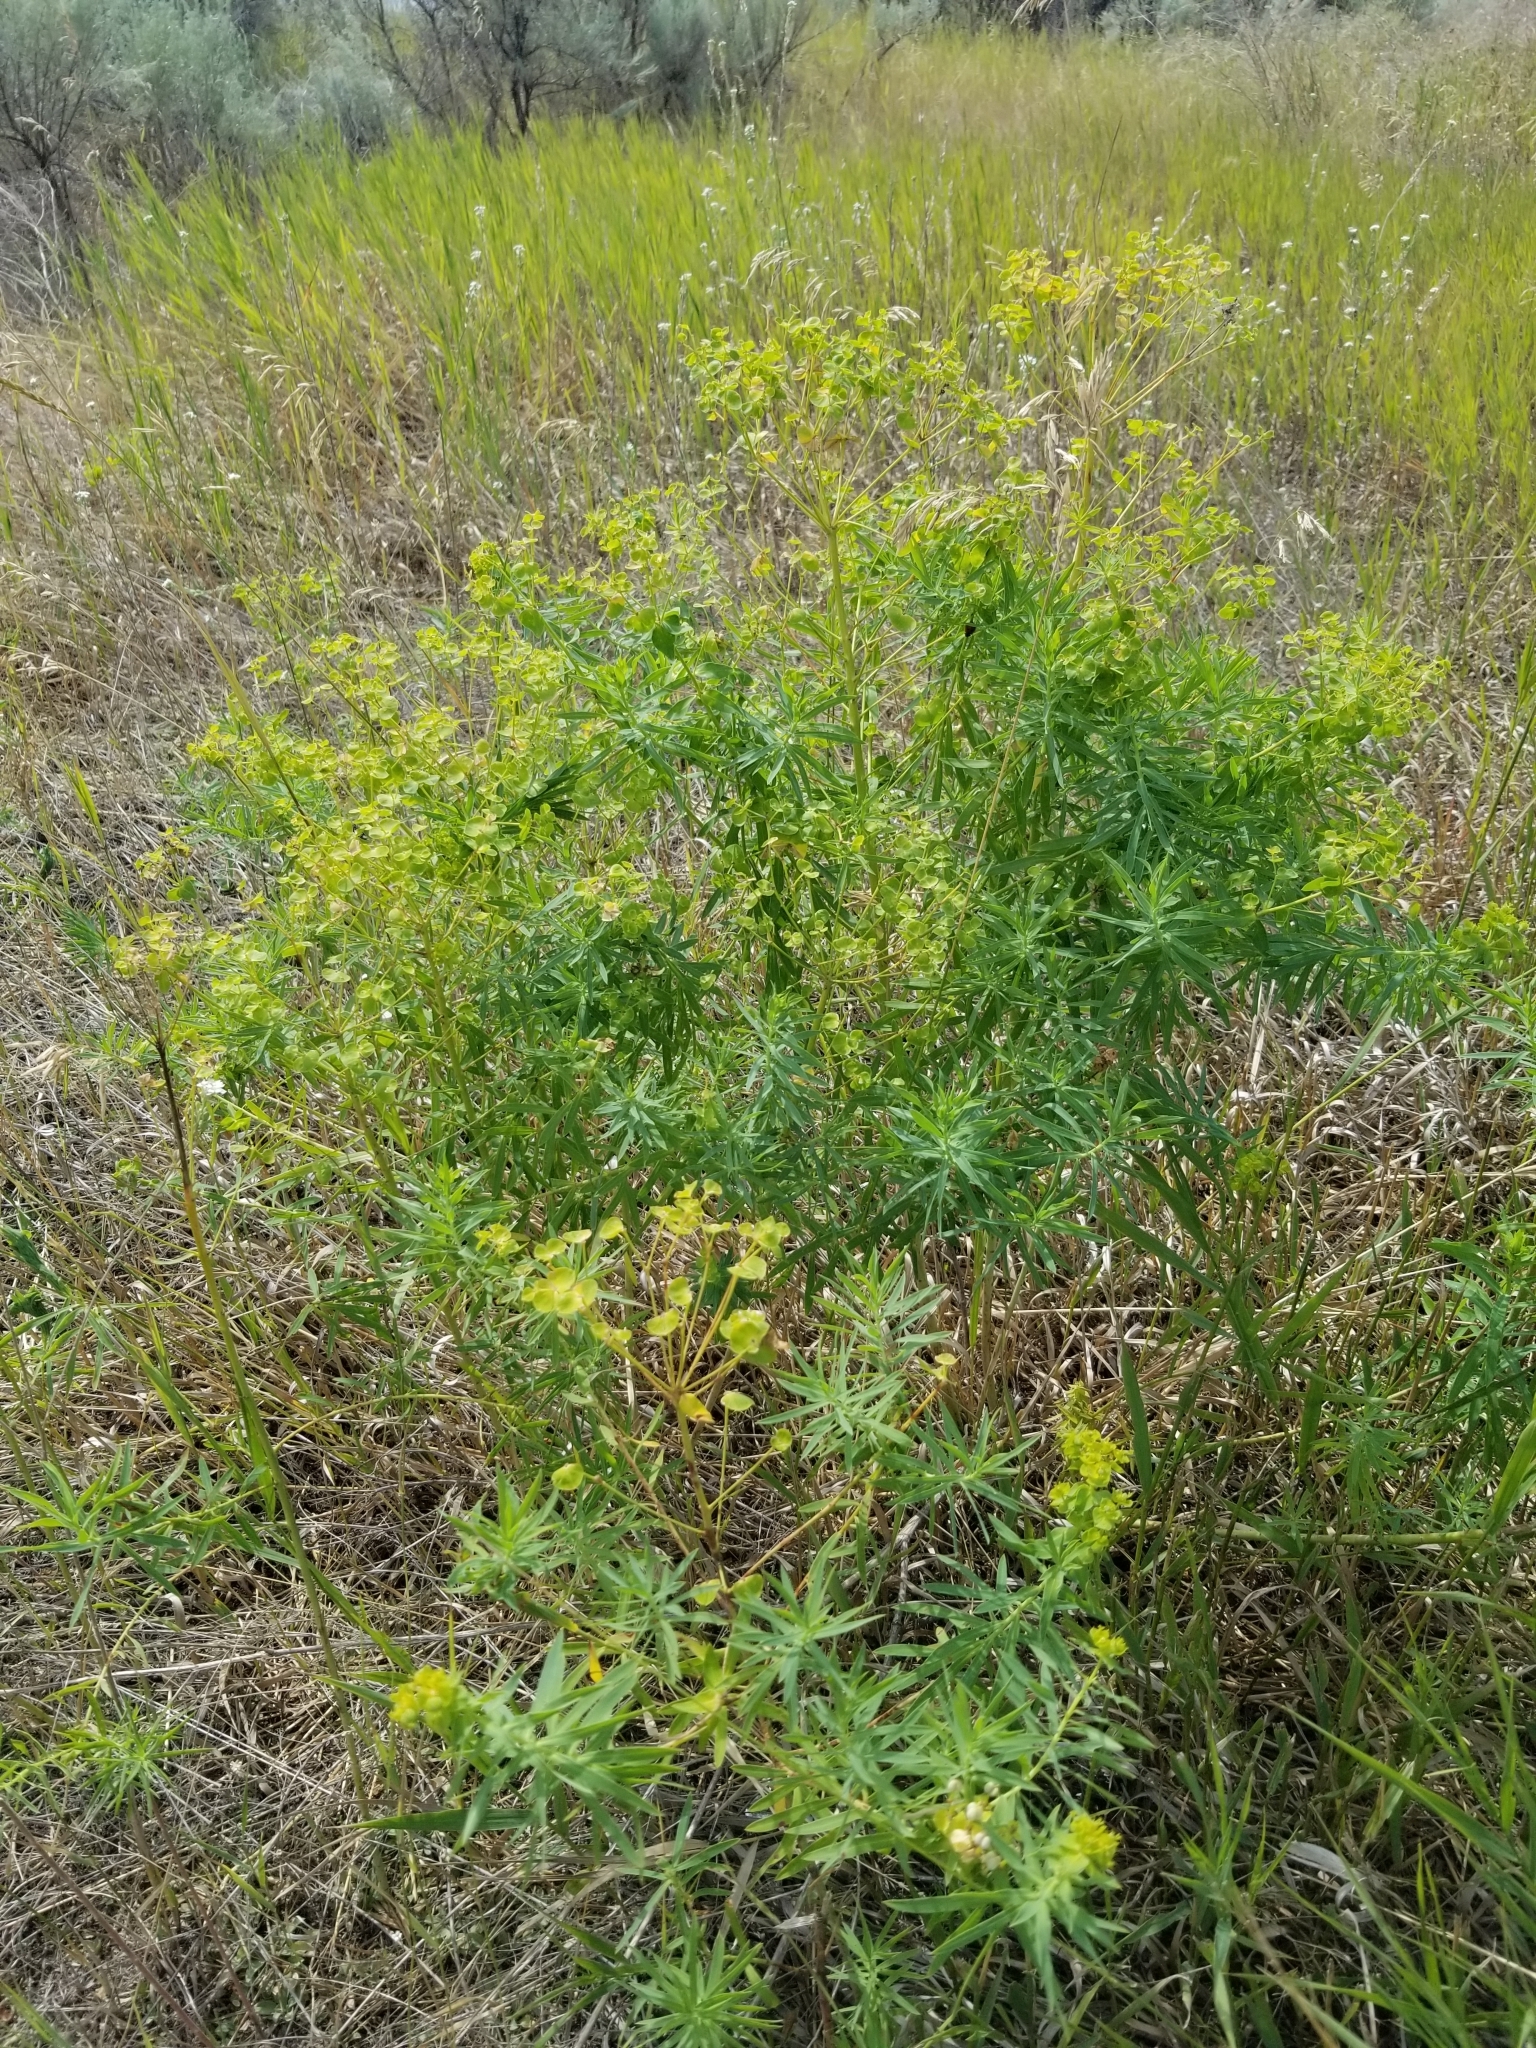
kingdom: Plantae
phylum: Tracheophyta
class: Magnoliopsida
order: Malpighiales
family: Euphorbiaceae
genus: Euphorbia
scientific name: Euphorbia esula
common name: Leafy spurge
